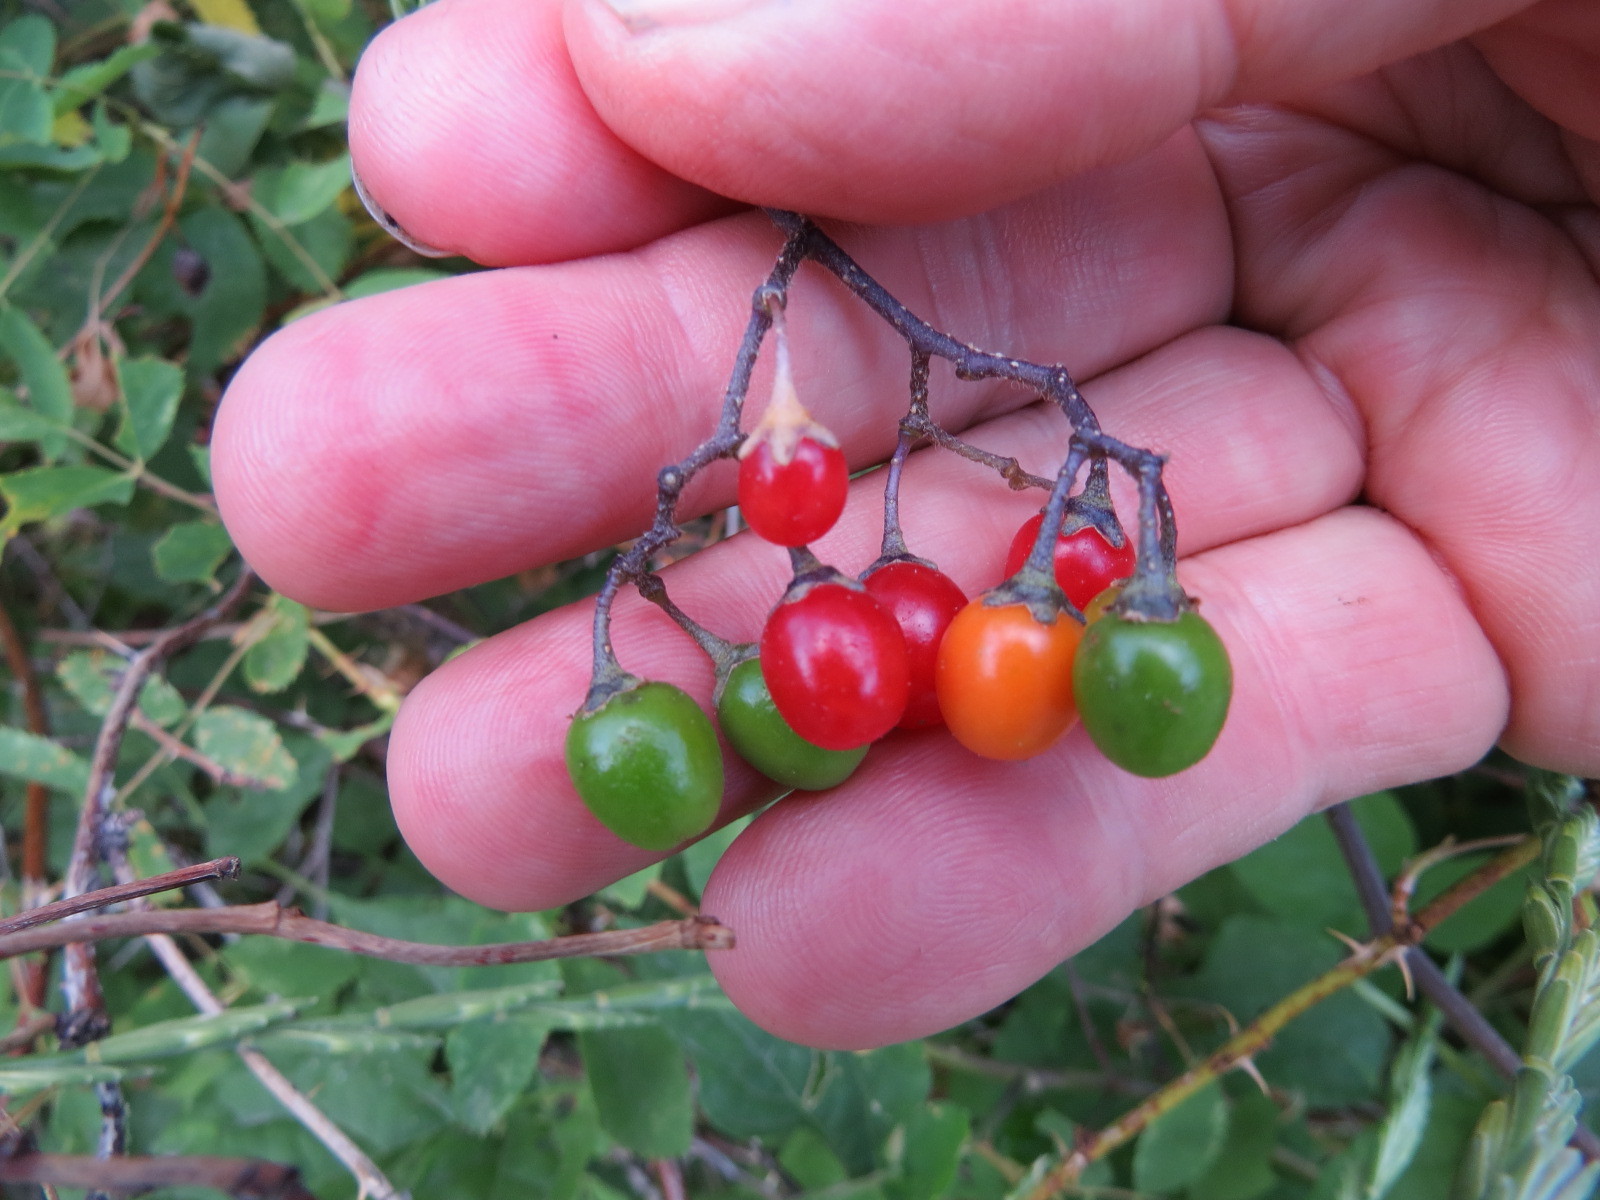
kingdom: Plantae
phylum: Tracheophyta
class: Magnoliopsida
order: Solanales
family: Solanaceae
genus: Solanum
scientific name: Solanum dulcamara
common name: Climbing nightshade
